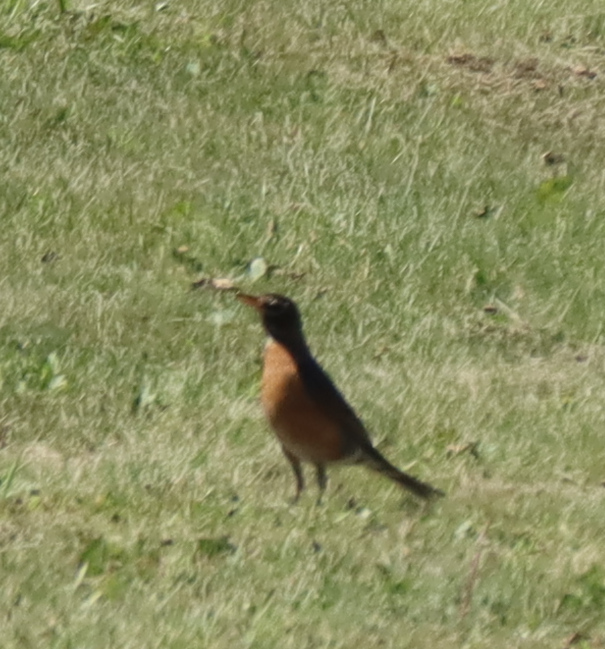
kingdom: Animalia
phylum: Chordata
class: Aves
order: Passeriformes
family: Turdidae
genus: Turdus
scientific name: Turdus migratorius
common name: American robin
